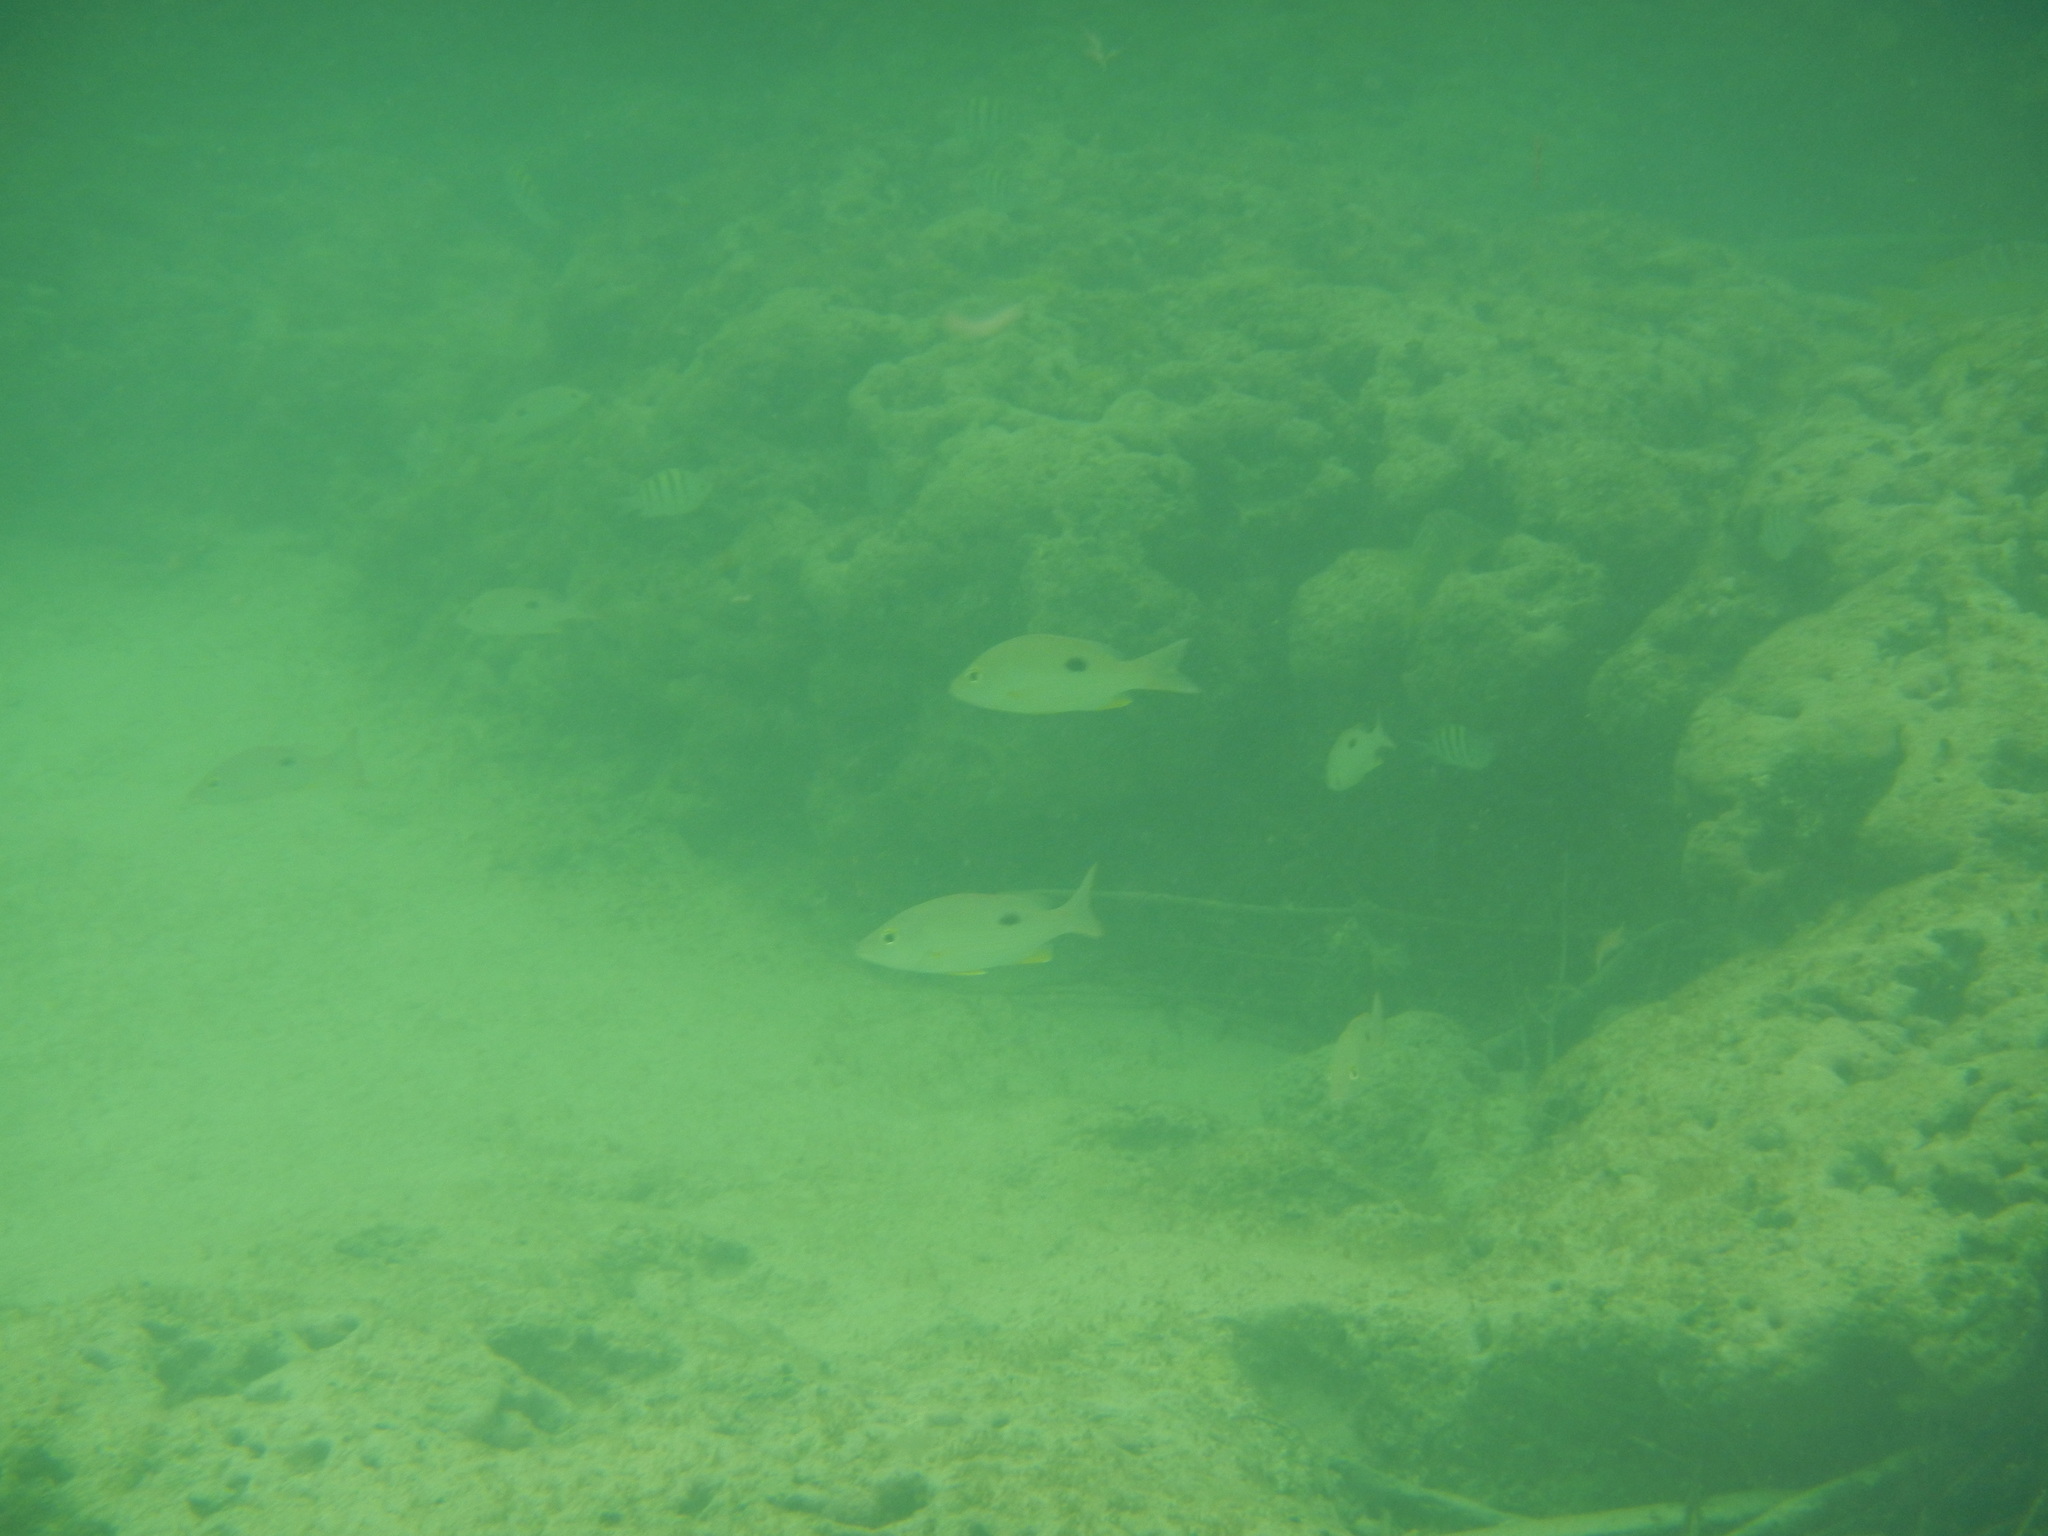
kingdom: Animalia
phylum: Chordata
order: Perciformes
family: Lutjanidae
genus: Lutjanus
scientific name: Lutjanus synagris
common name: Lane snapper
